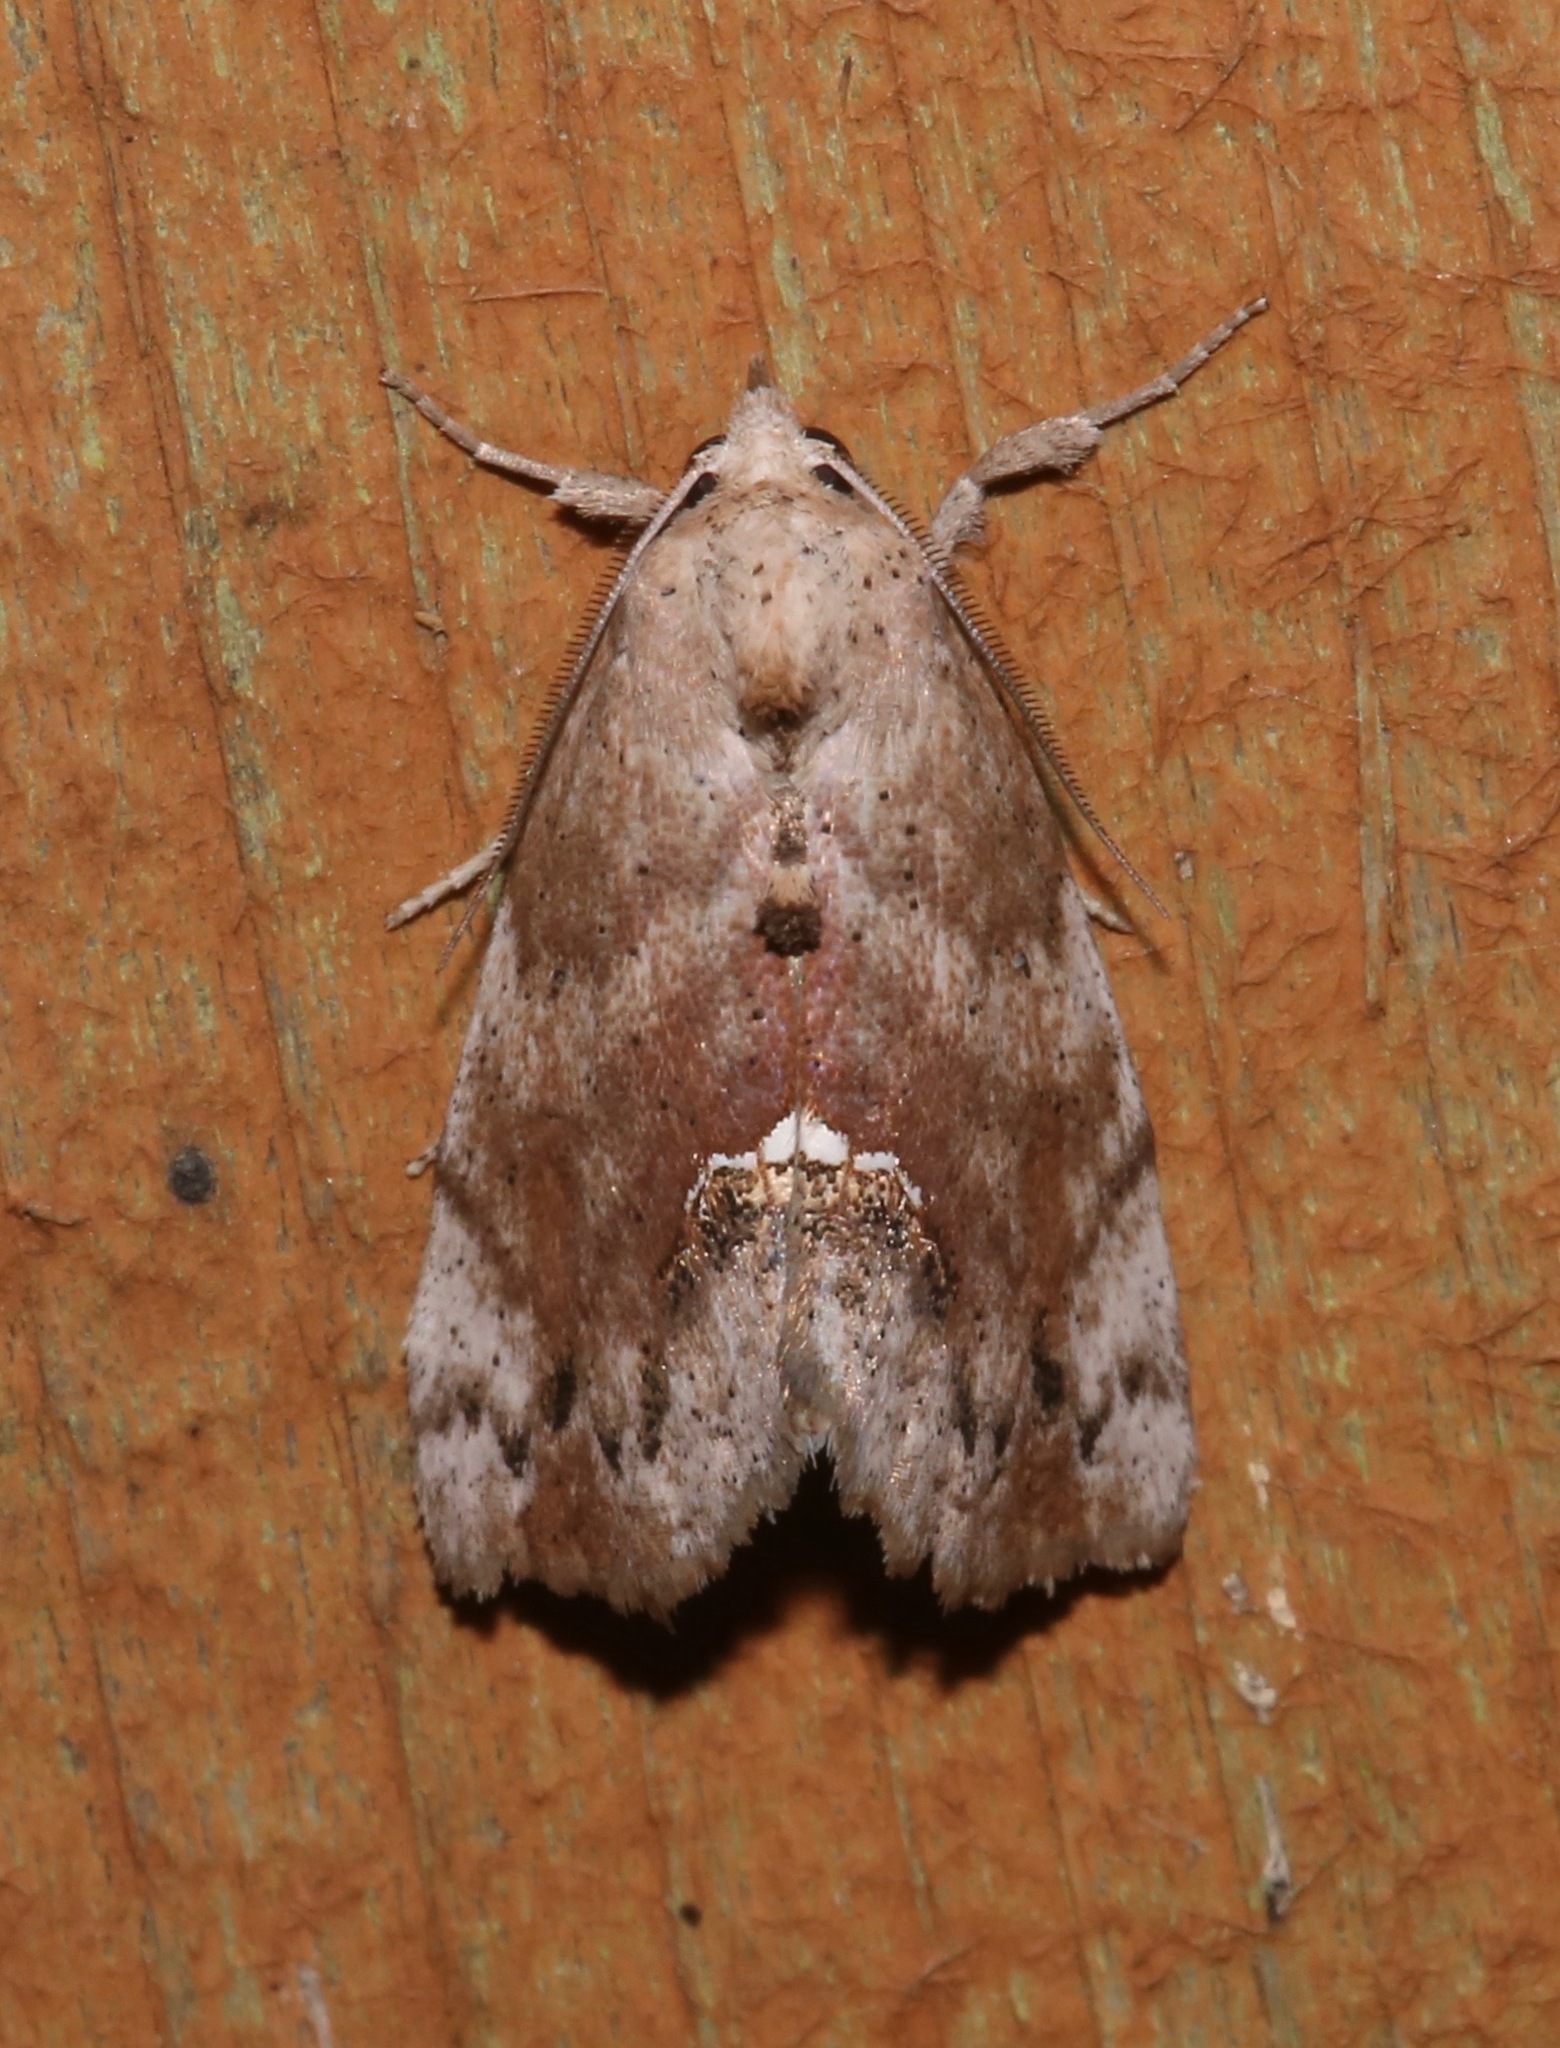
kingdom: Animalia
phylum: Arthropoda
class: Insecta
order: Lepidoptera
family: Erebidae
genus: Hypsoropha
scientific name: Hypsoropha hormos
